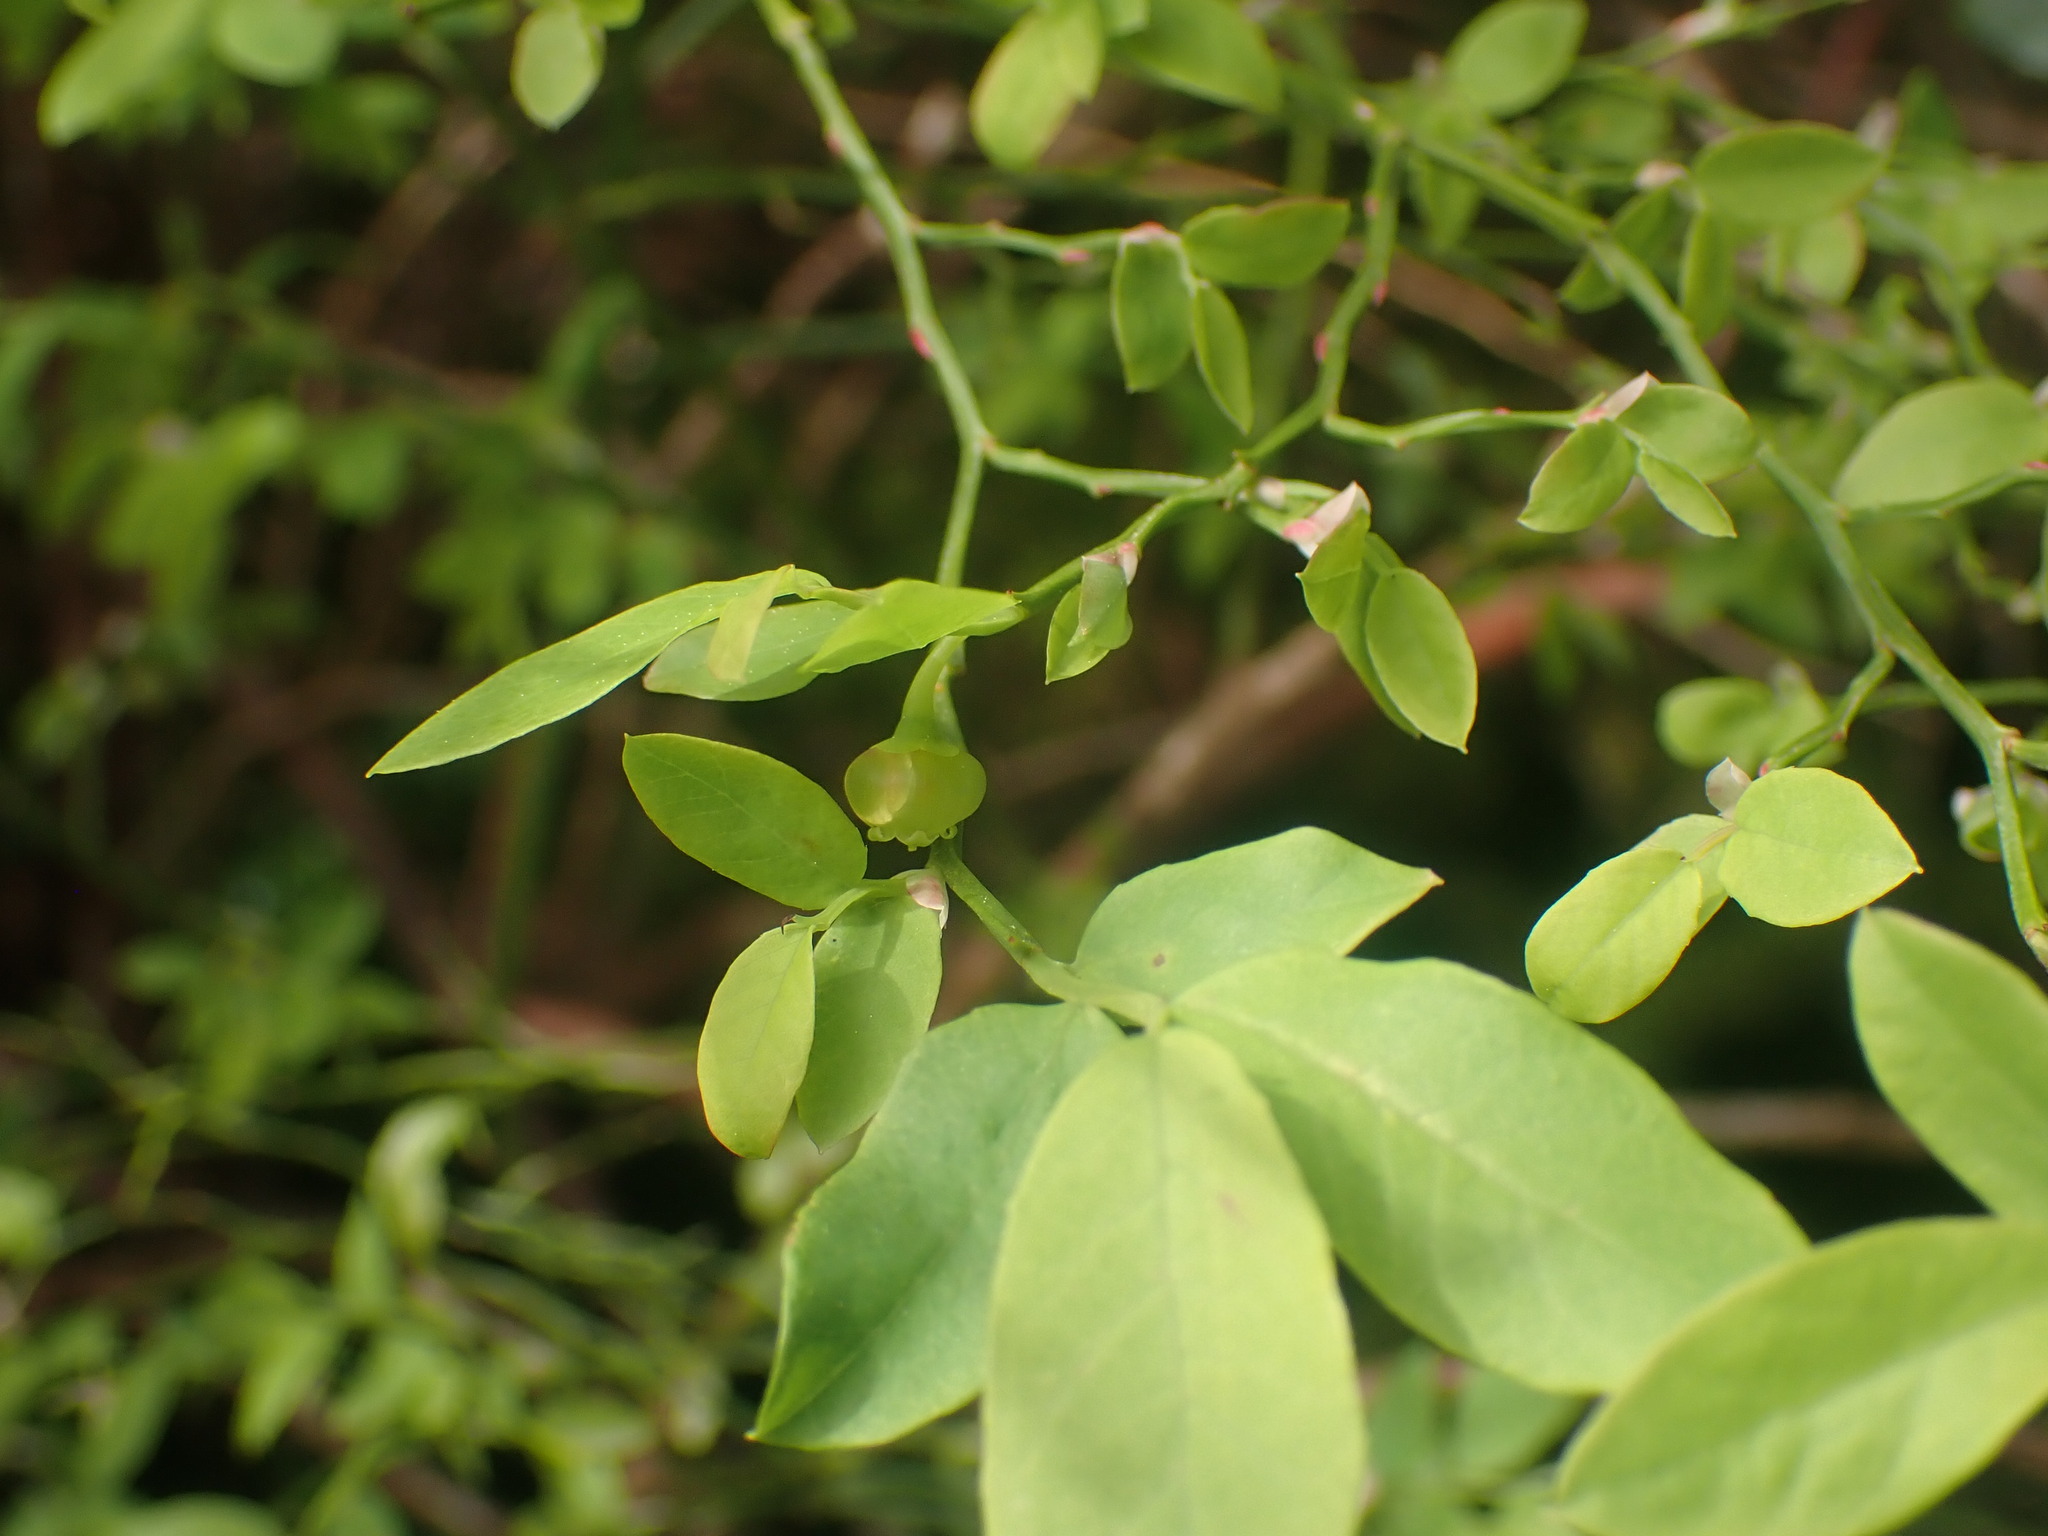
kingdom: Plantae
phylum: Tracheophyta
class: Magnoliopsida
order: Ericales
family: Ericaceae
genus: Vaccinium
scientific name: Vaccinium parvifolium
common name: Red-huckleberry
